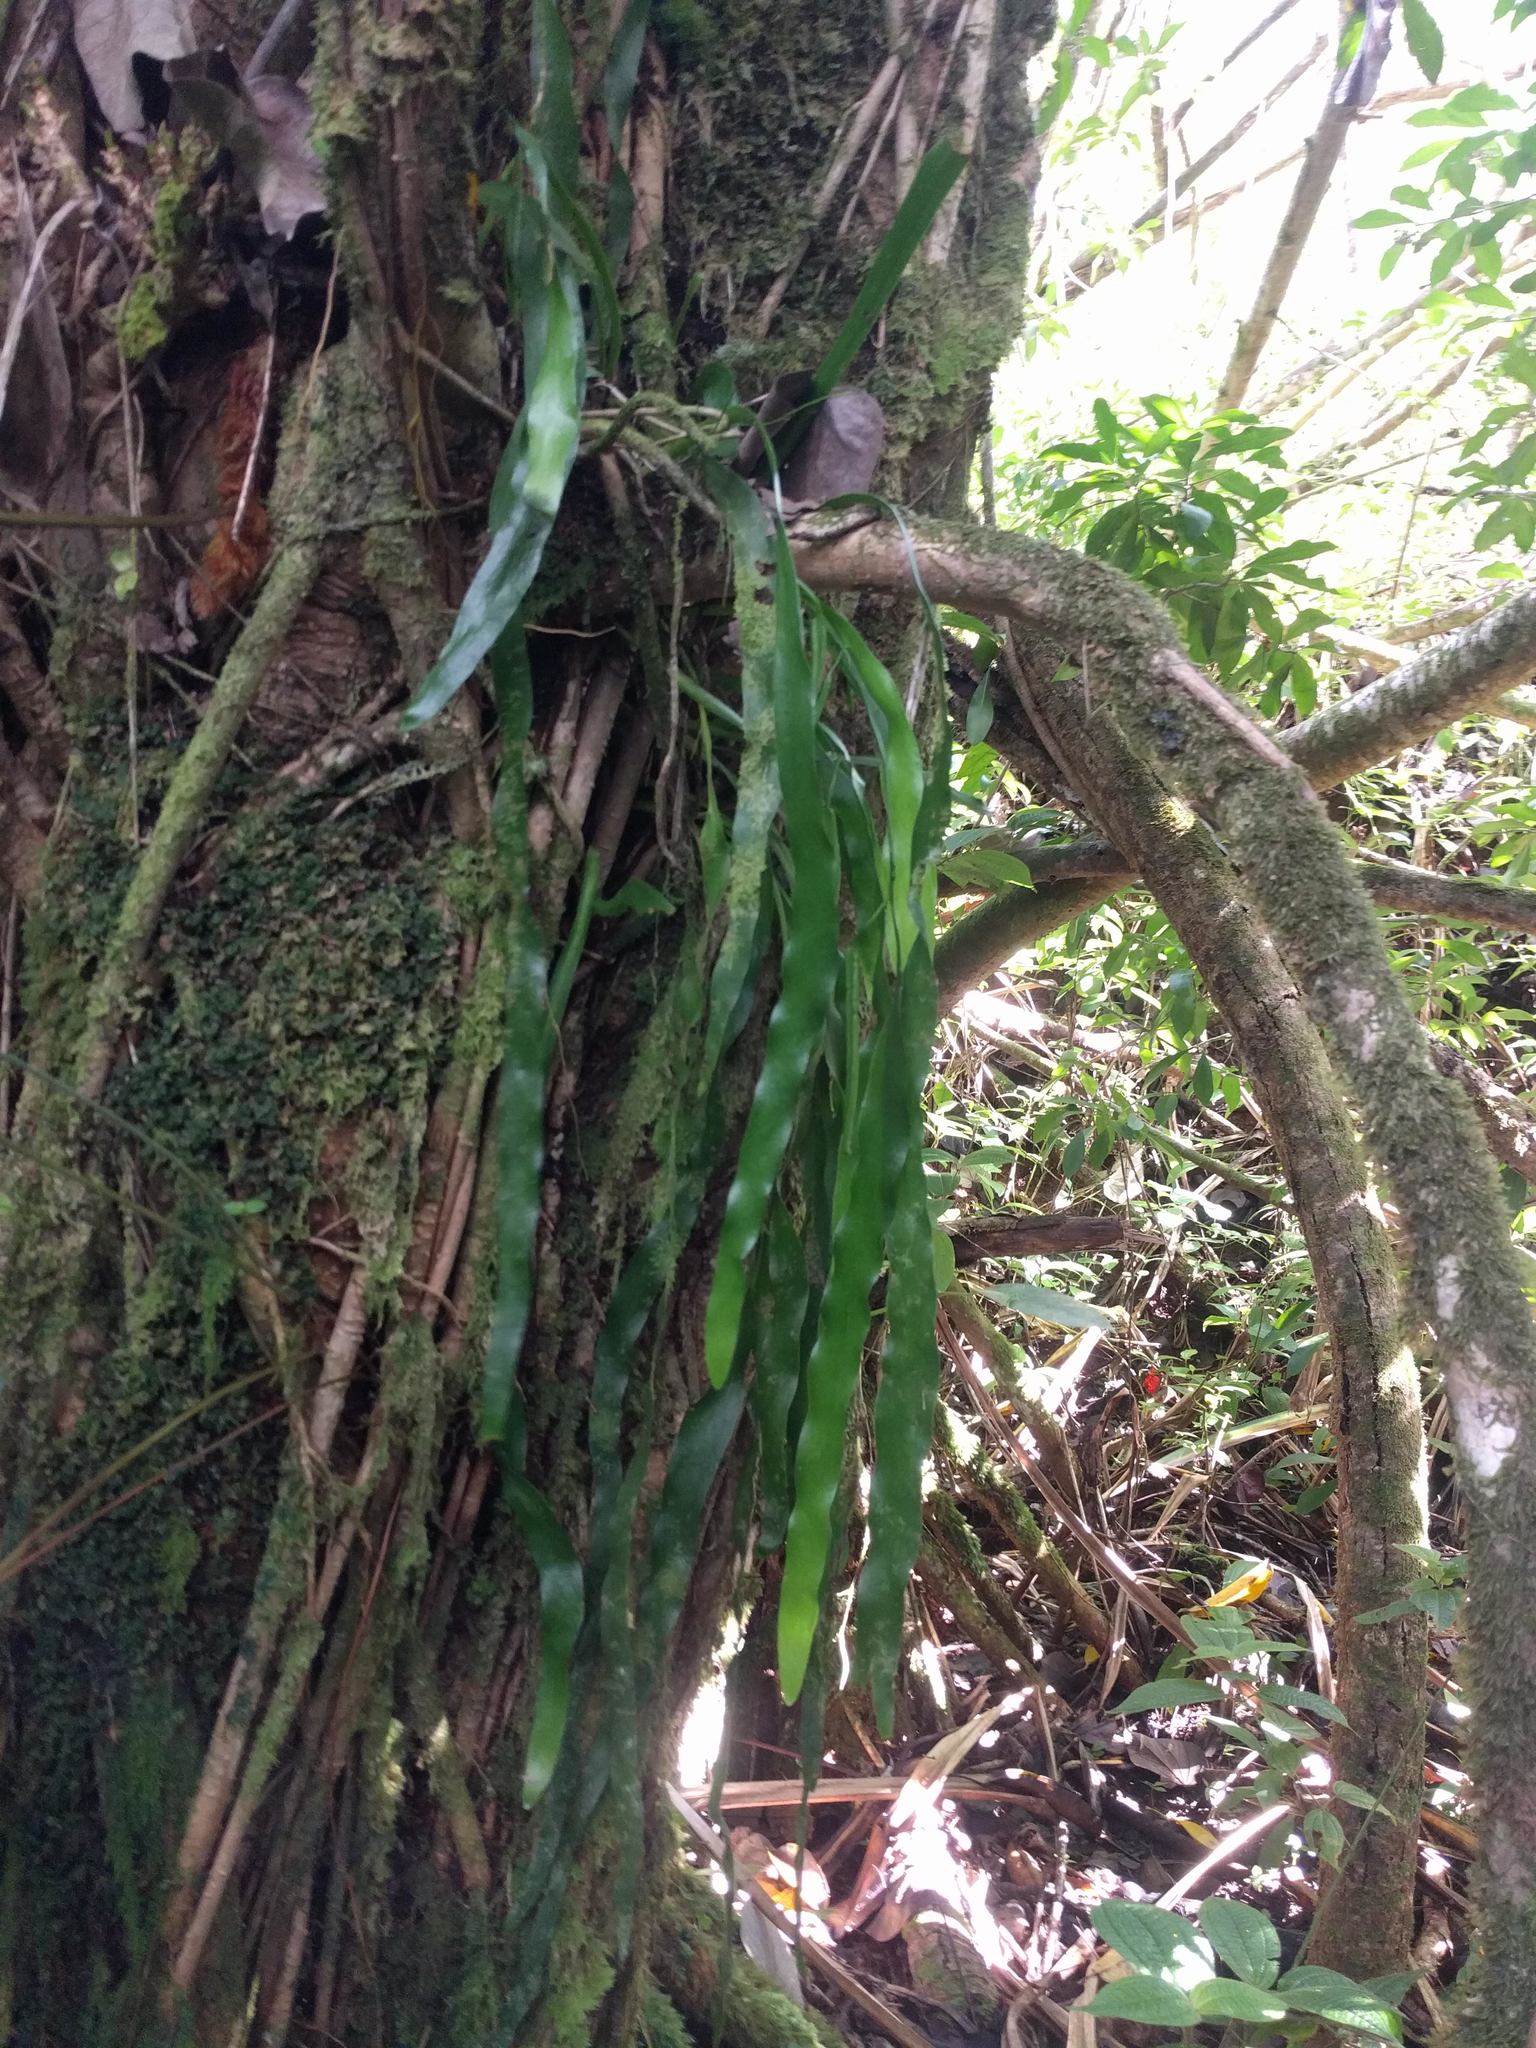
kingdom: Plantae
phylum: Tracheophyta
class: Polypodiopsida
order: Ophioglossales
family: Ophioglossaceae
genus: Ophioderma
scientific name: Ophioderma pendulum
